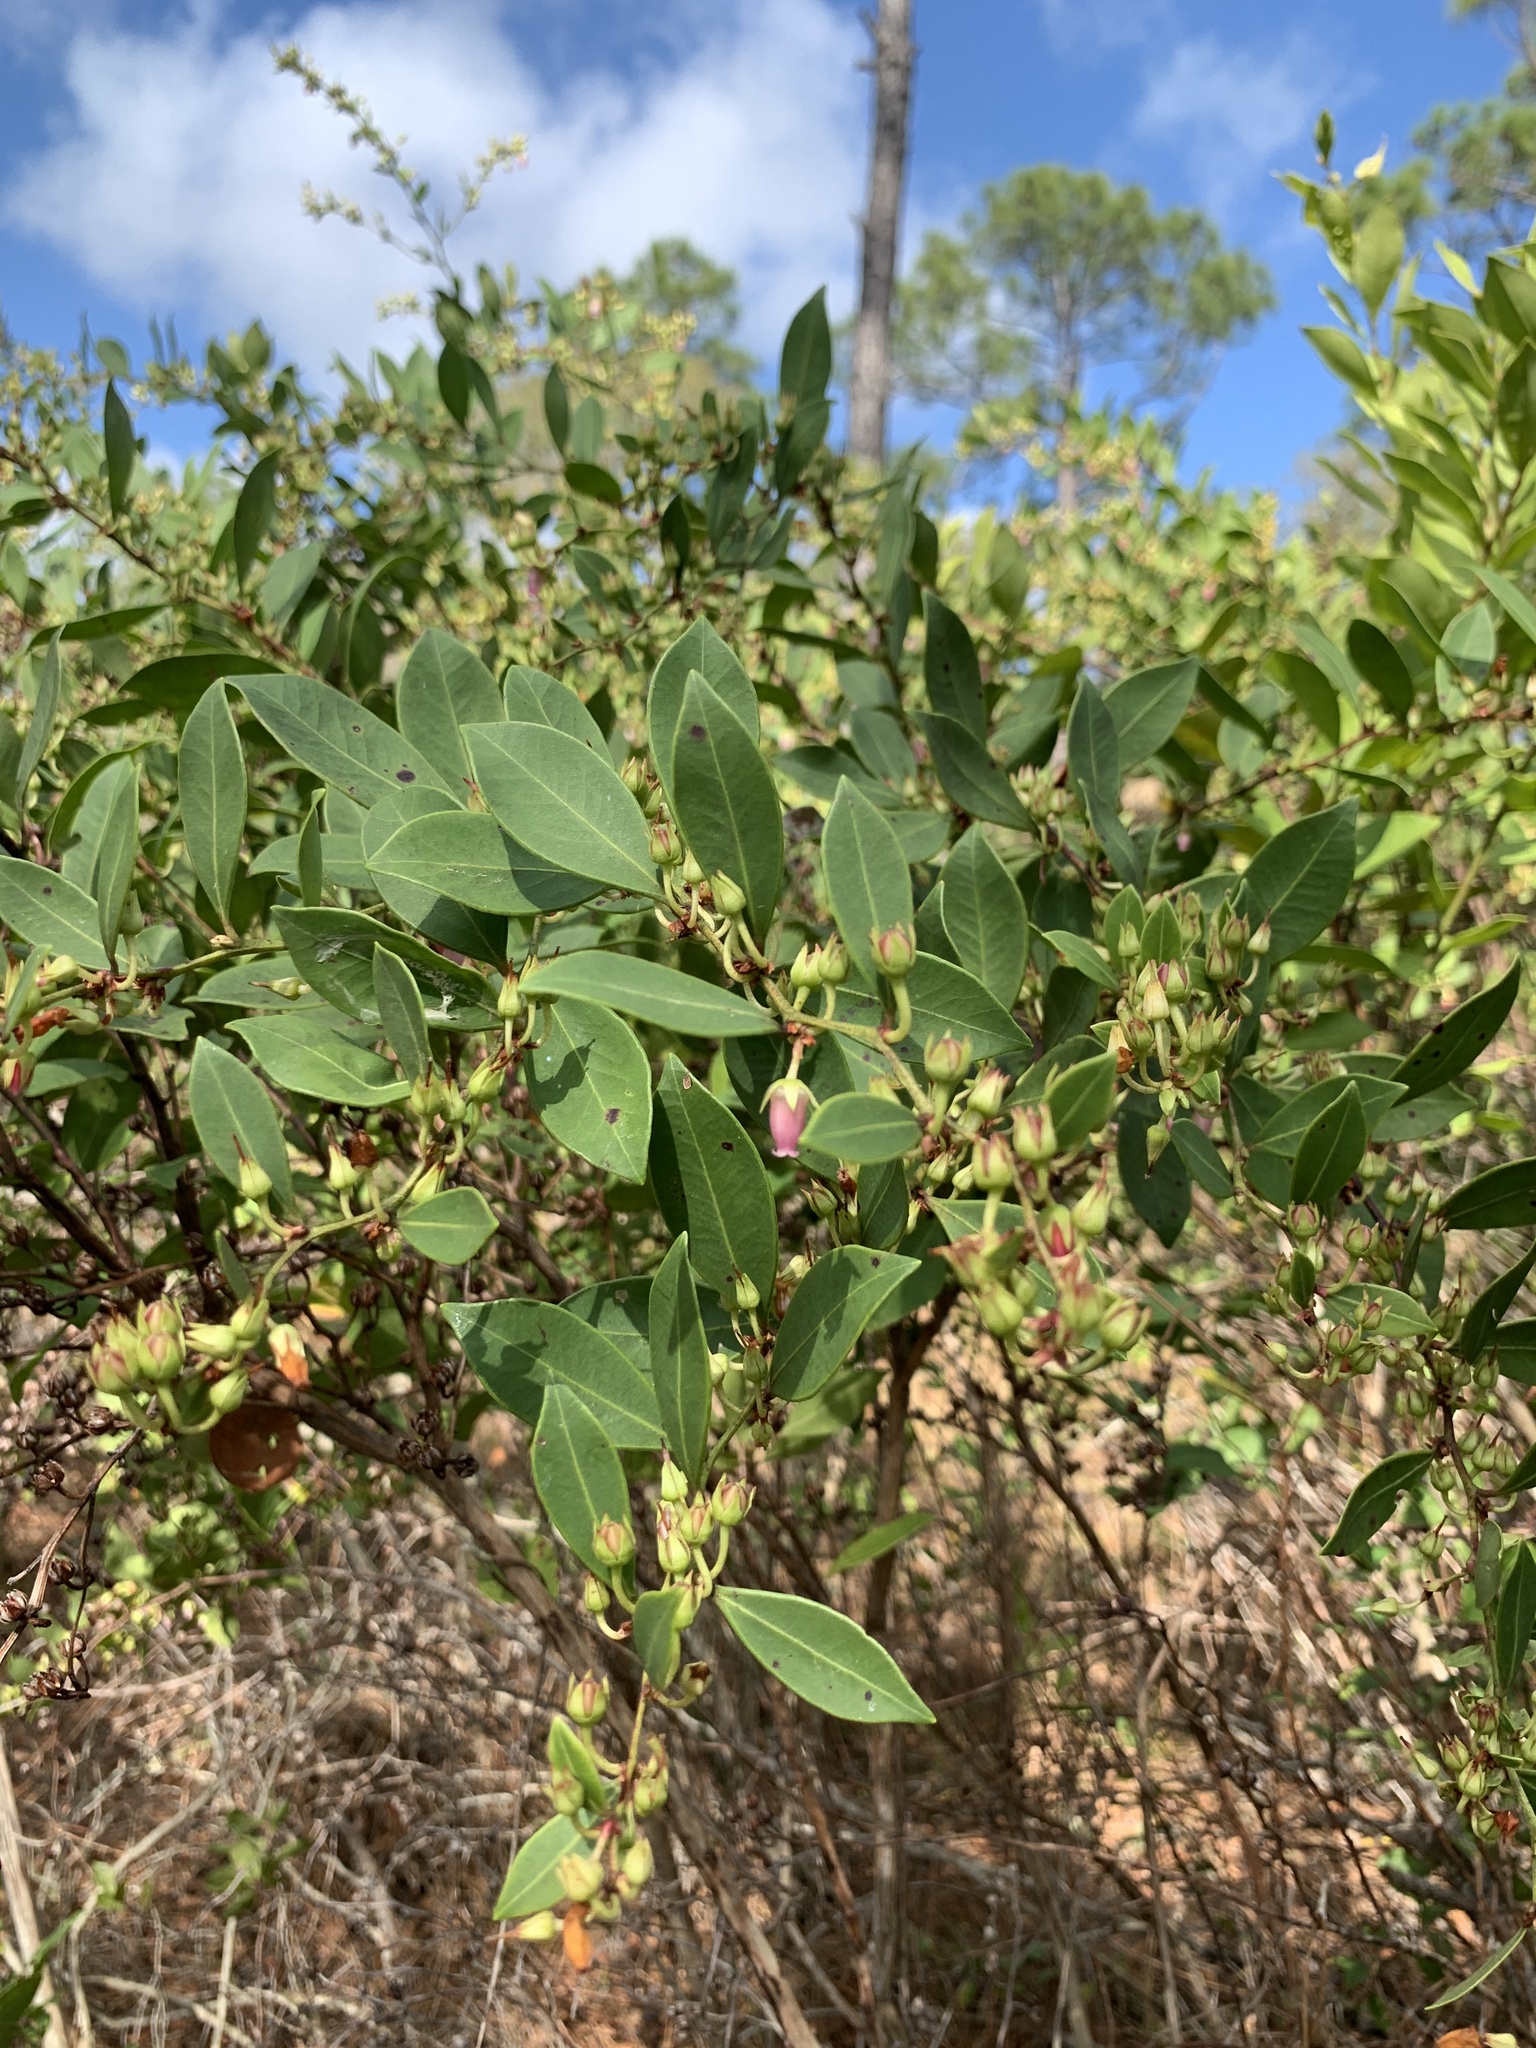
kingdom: Plantae
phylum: Tracheophyta
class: Magnoliopsida
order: Ericales
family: Ericaceae
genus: Lyonia
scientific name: Lyonia lucida
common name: Fetterbush
